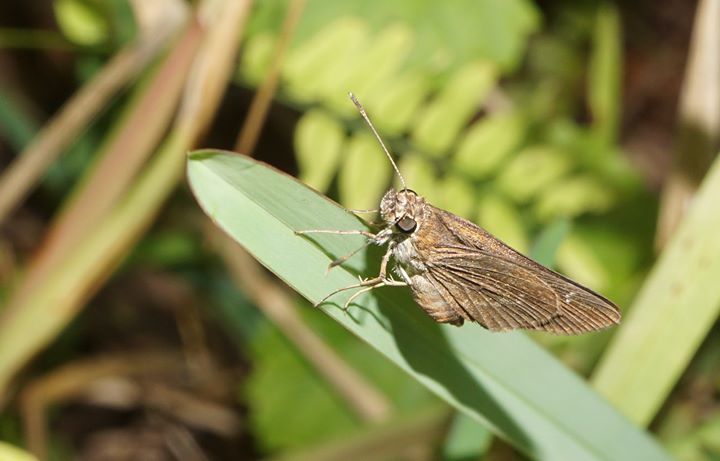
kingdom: Animalia
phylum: Arthropoda
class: Insecta
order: Lepidoptera
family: Hesperiidae
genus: Cymaenes
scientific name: Cymaenes tripunctus
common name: Dingy dotted skipper
